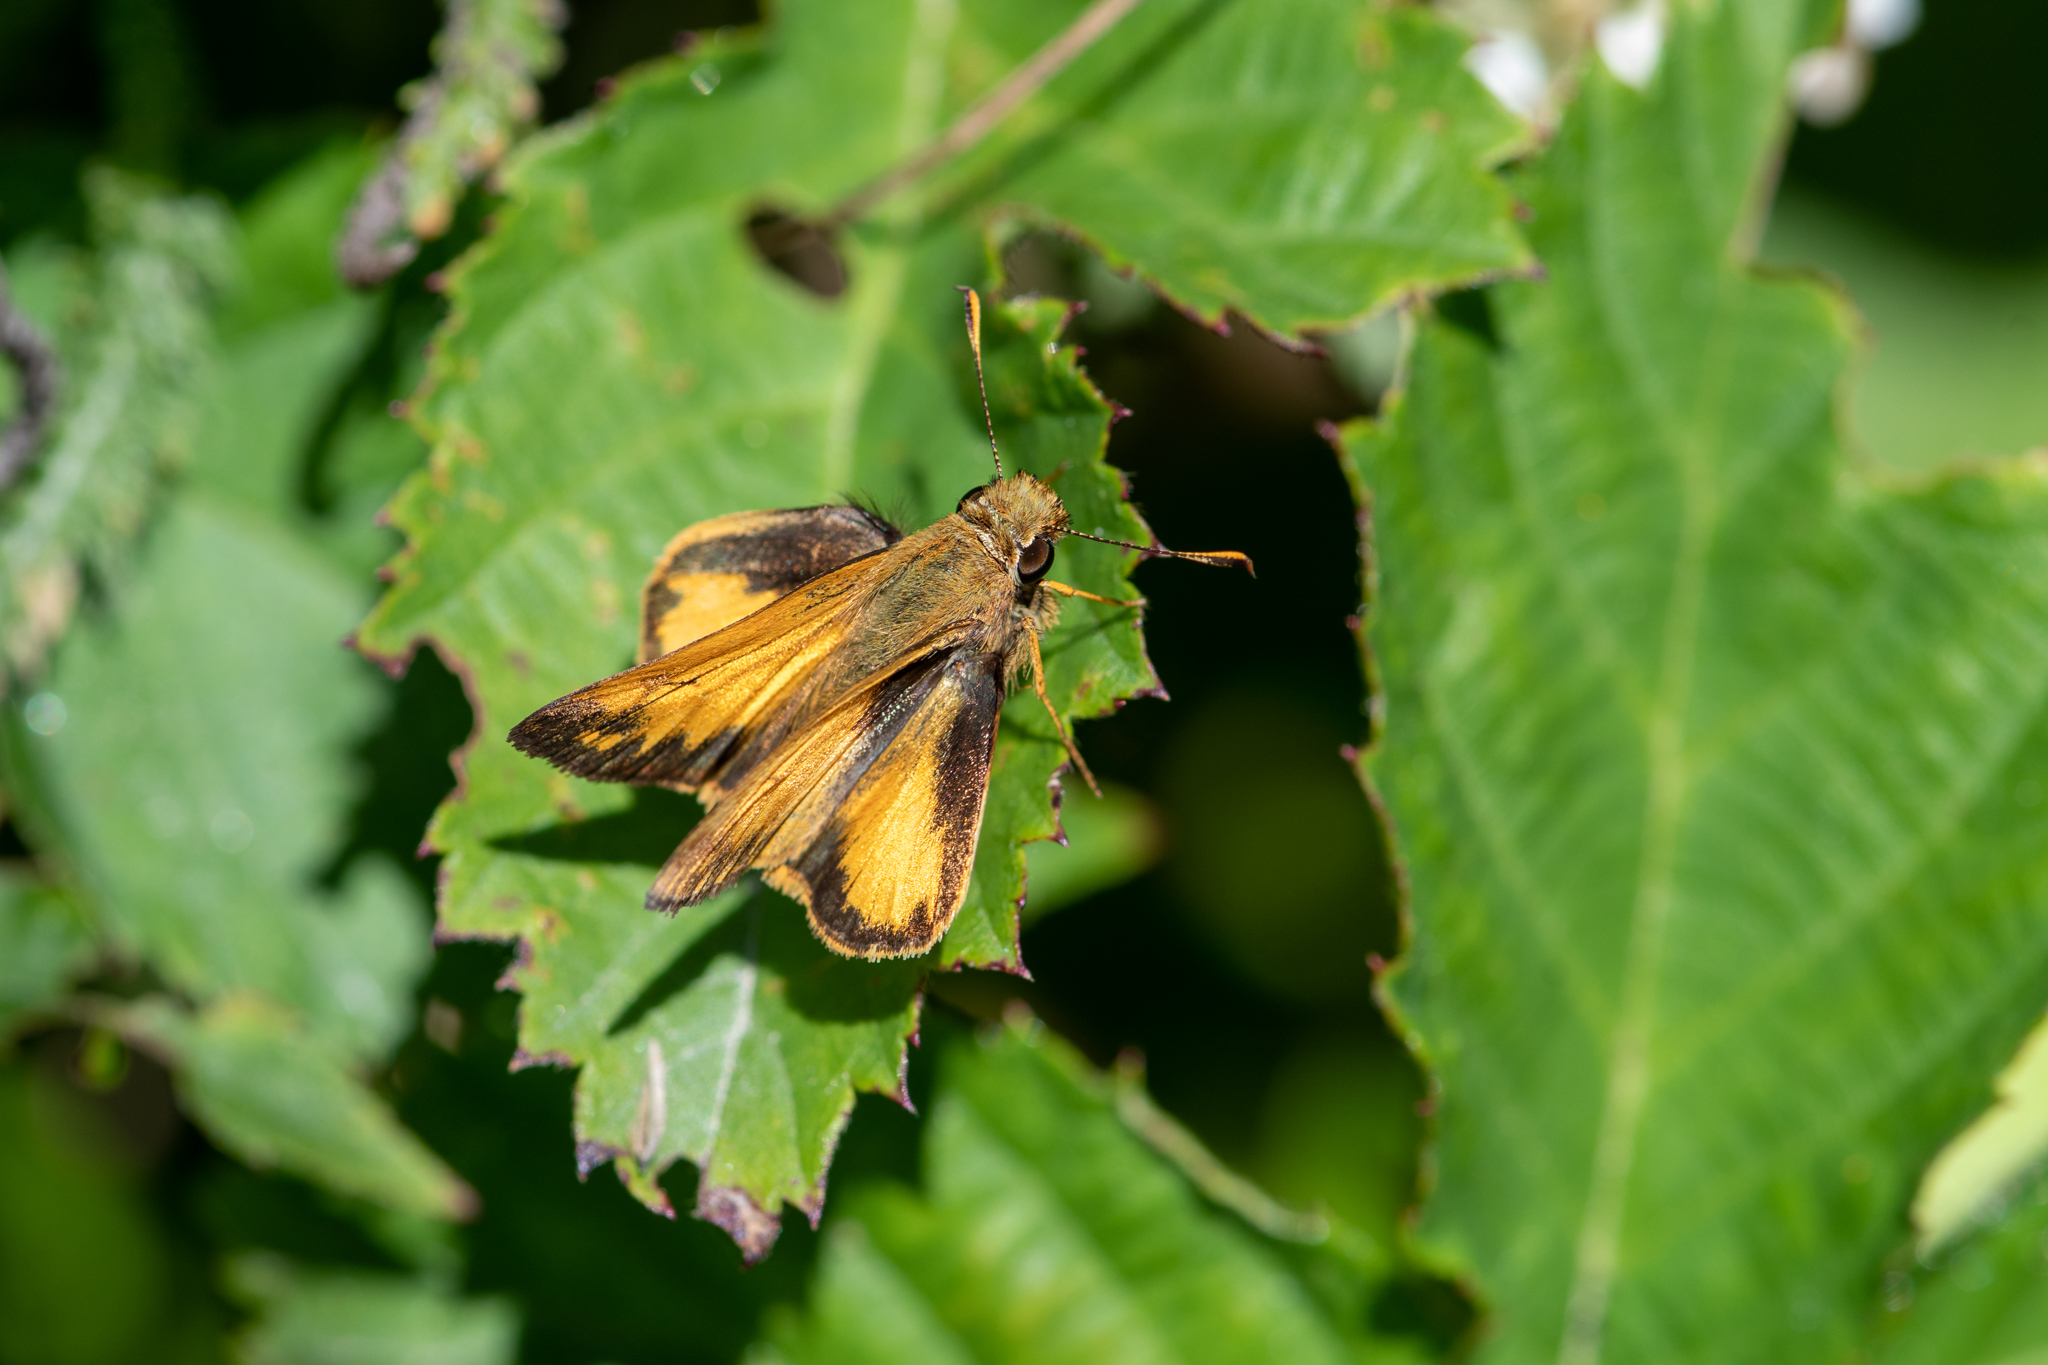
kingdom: Animalia
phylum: Arthropoda
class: Insecta
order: Lepidoptera
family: Hesperiidae
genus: Lon
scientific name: Lon zabulon
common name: Zabulon skipper
